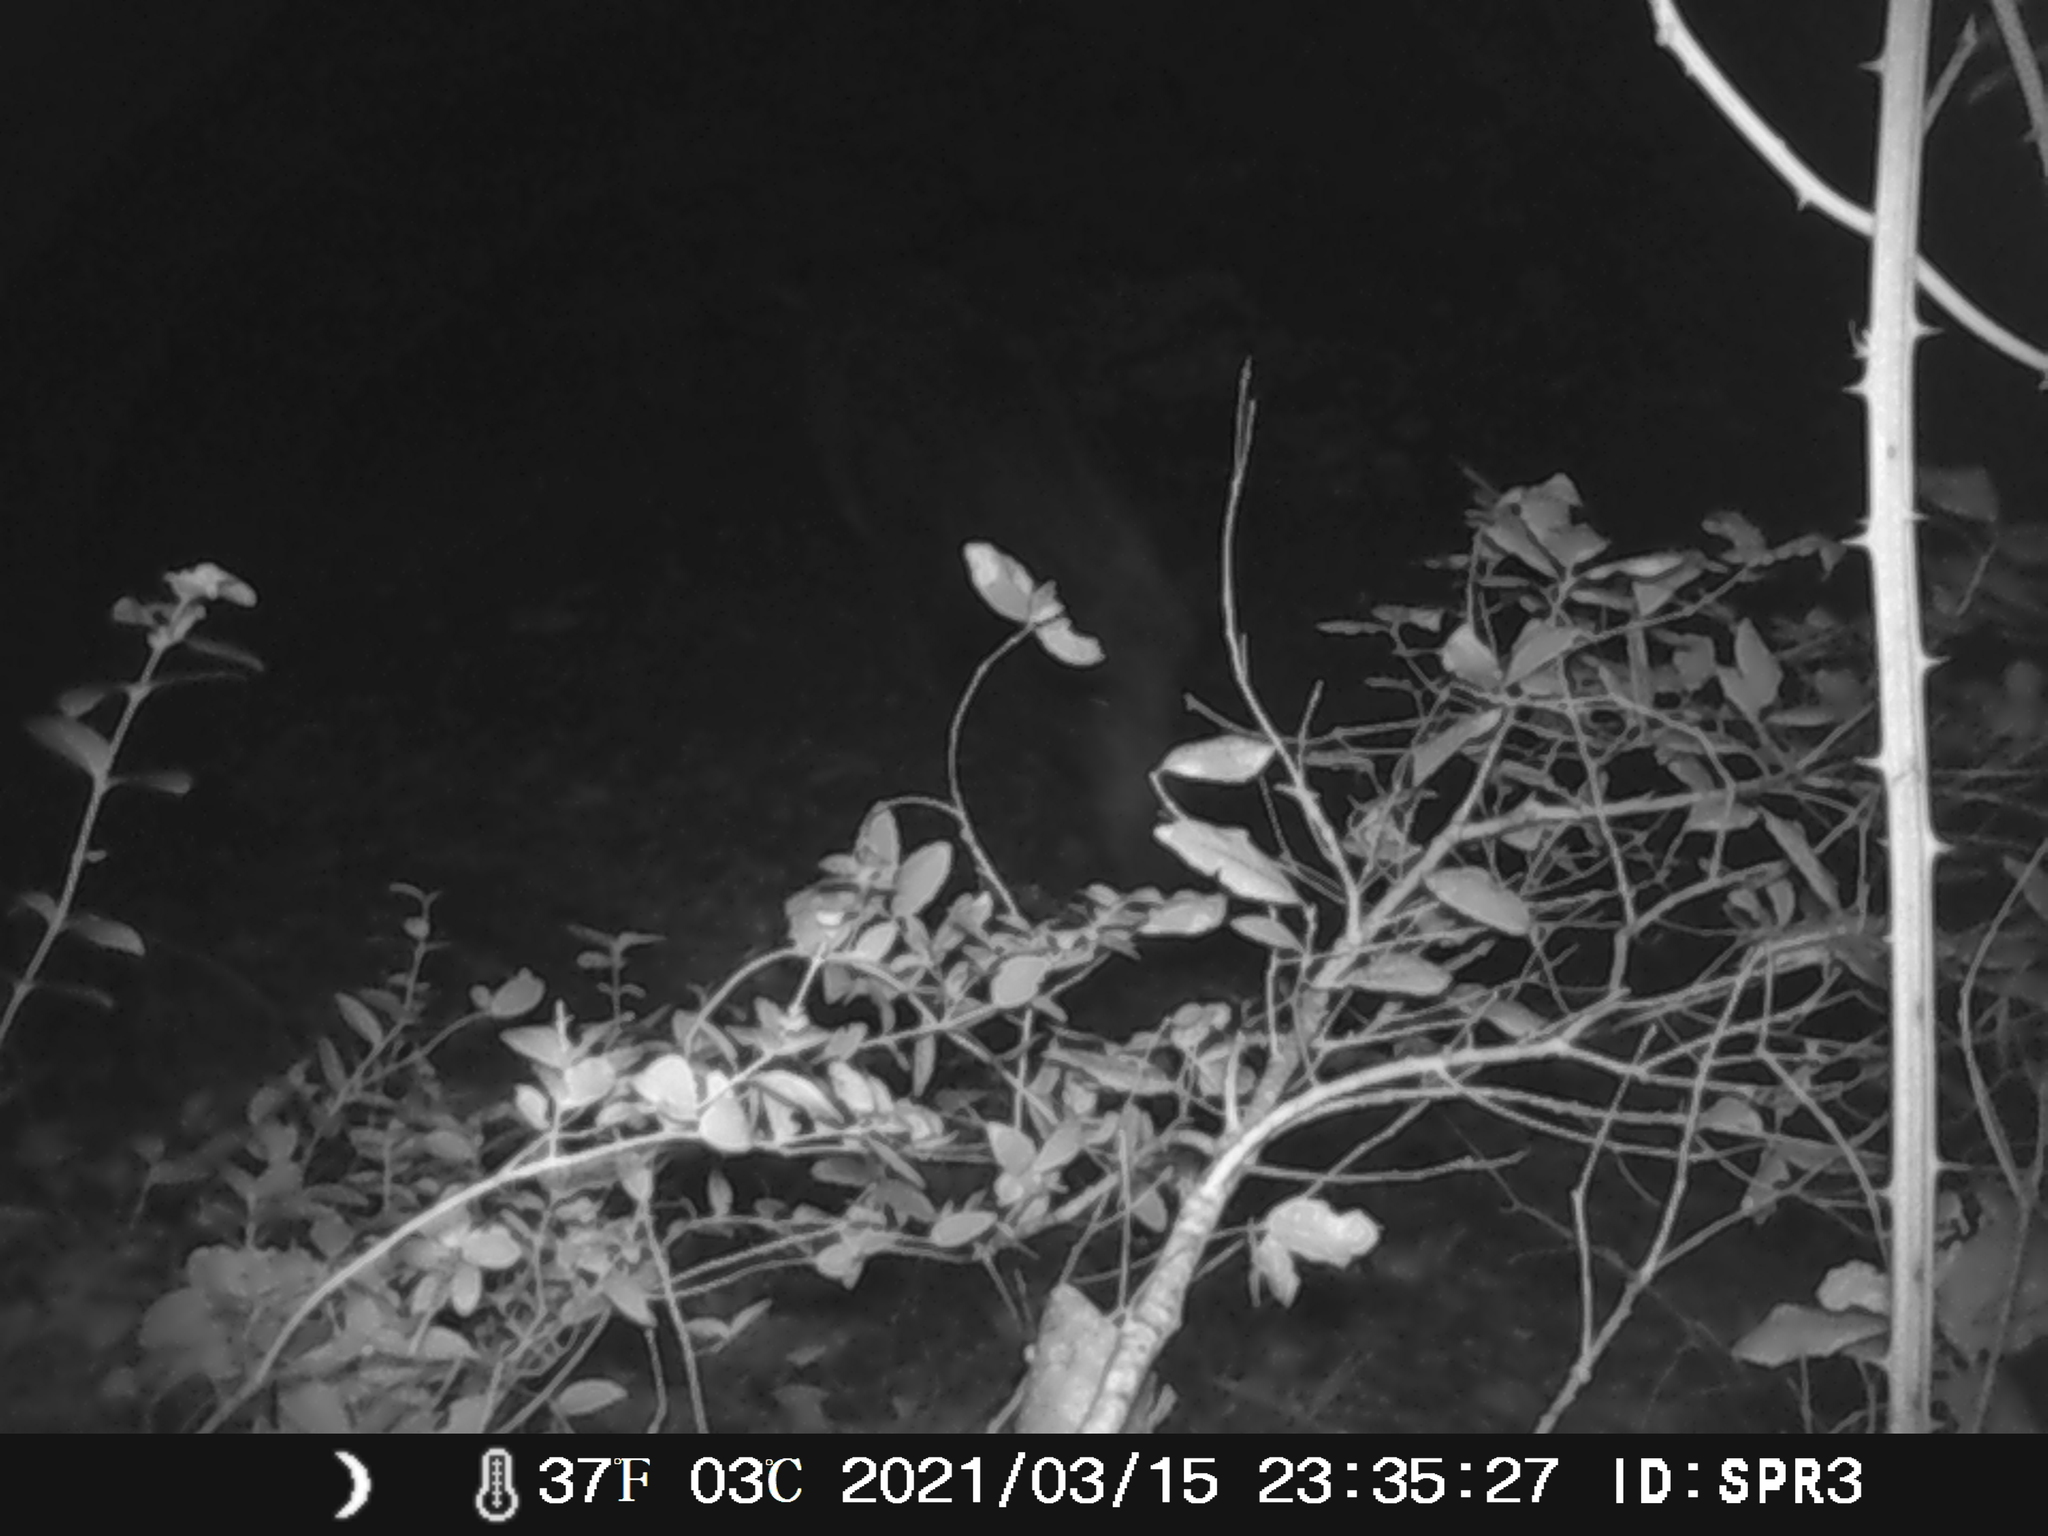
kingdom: Animalia
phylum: Chordata
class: Mammalia
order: Artiodactyla
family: Suidae
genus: Sus
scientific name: Sus scrofa
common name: Wild boar
